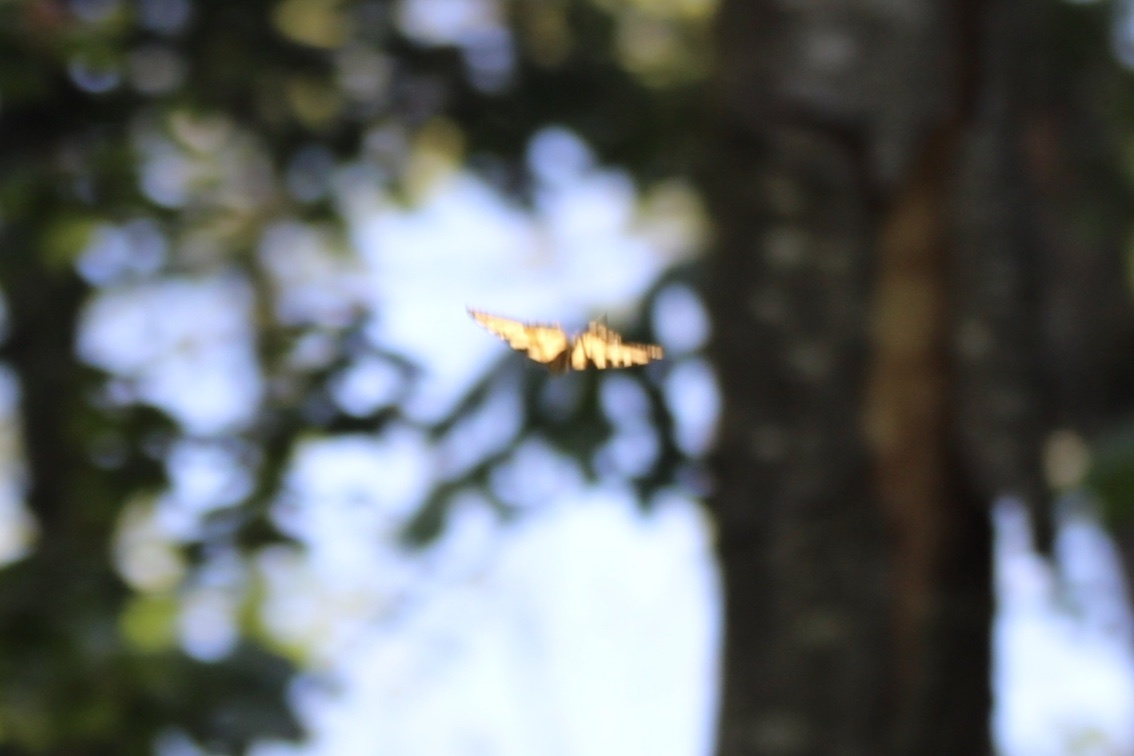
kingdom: Animalia
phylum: Arthropoda
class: Insecta
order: Lepidoptera
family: Papilionidae
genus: Papilio
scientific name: Papilio rutulus
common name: Western tiger swallowtail
